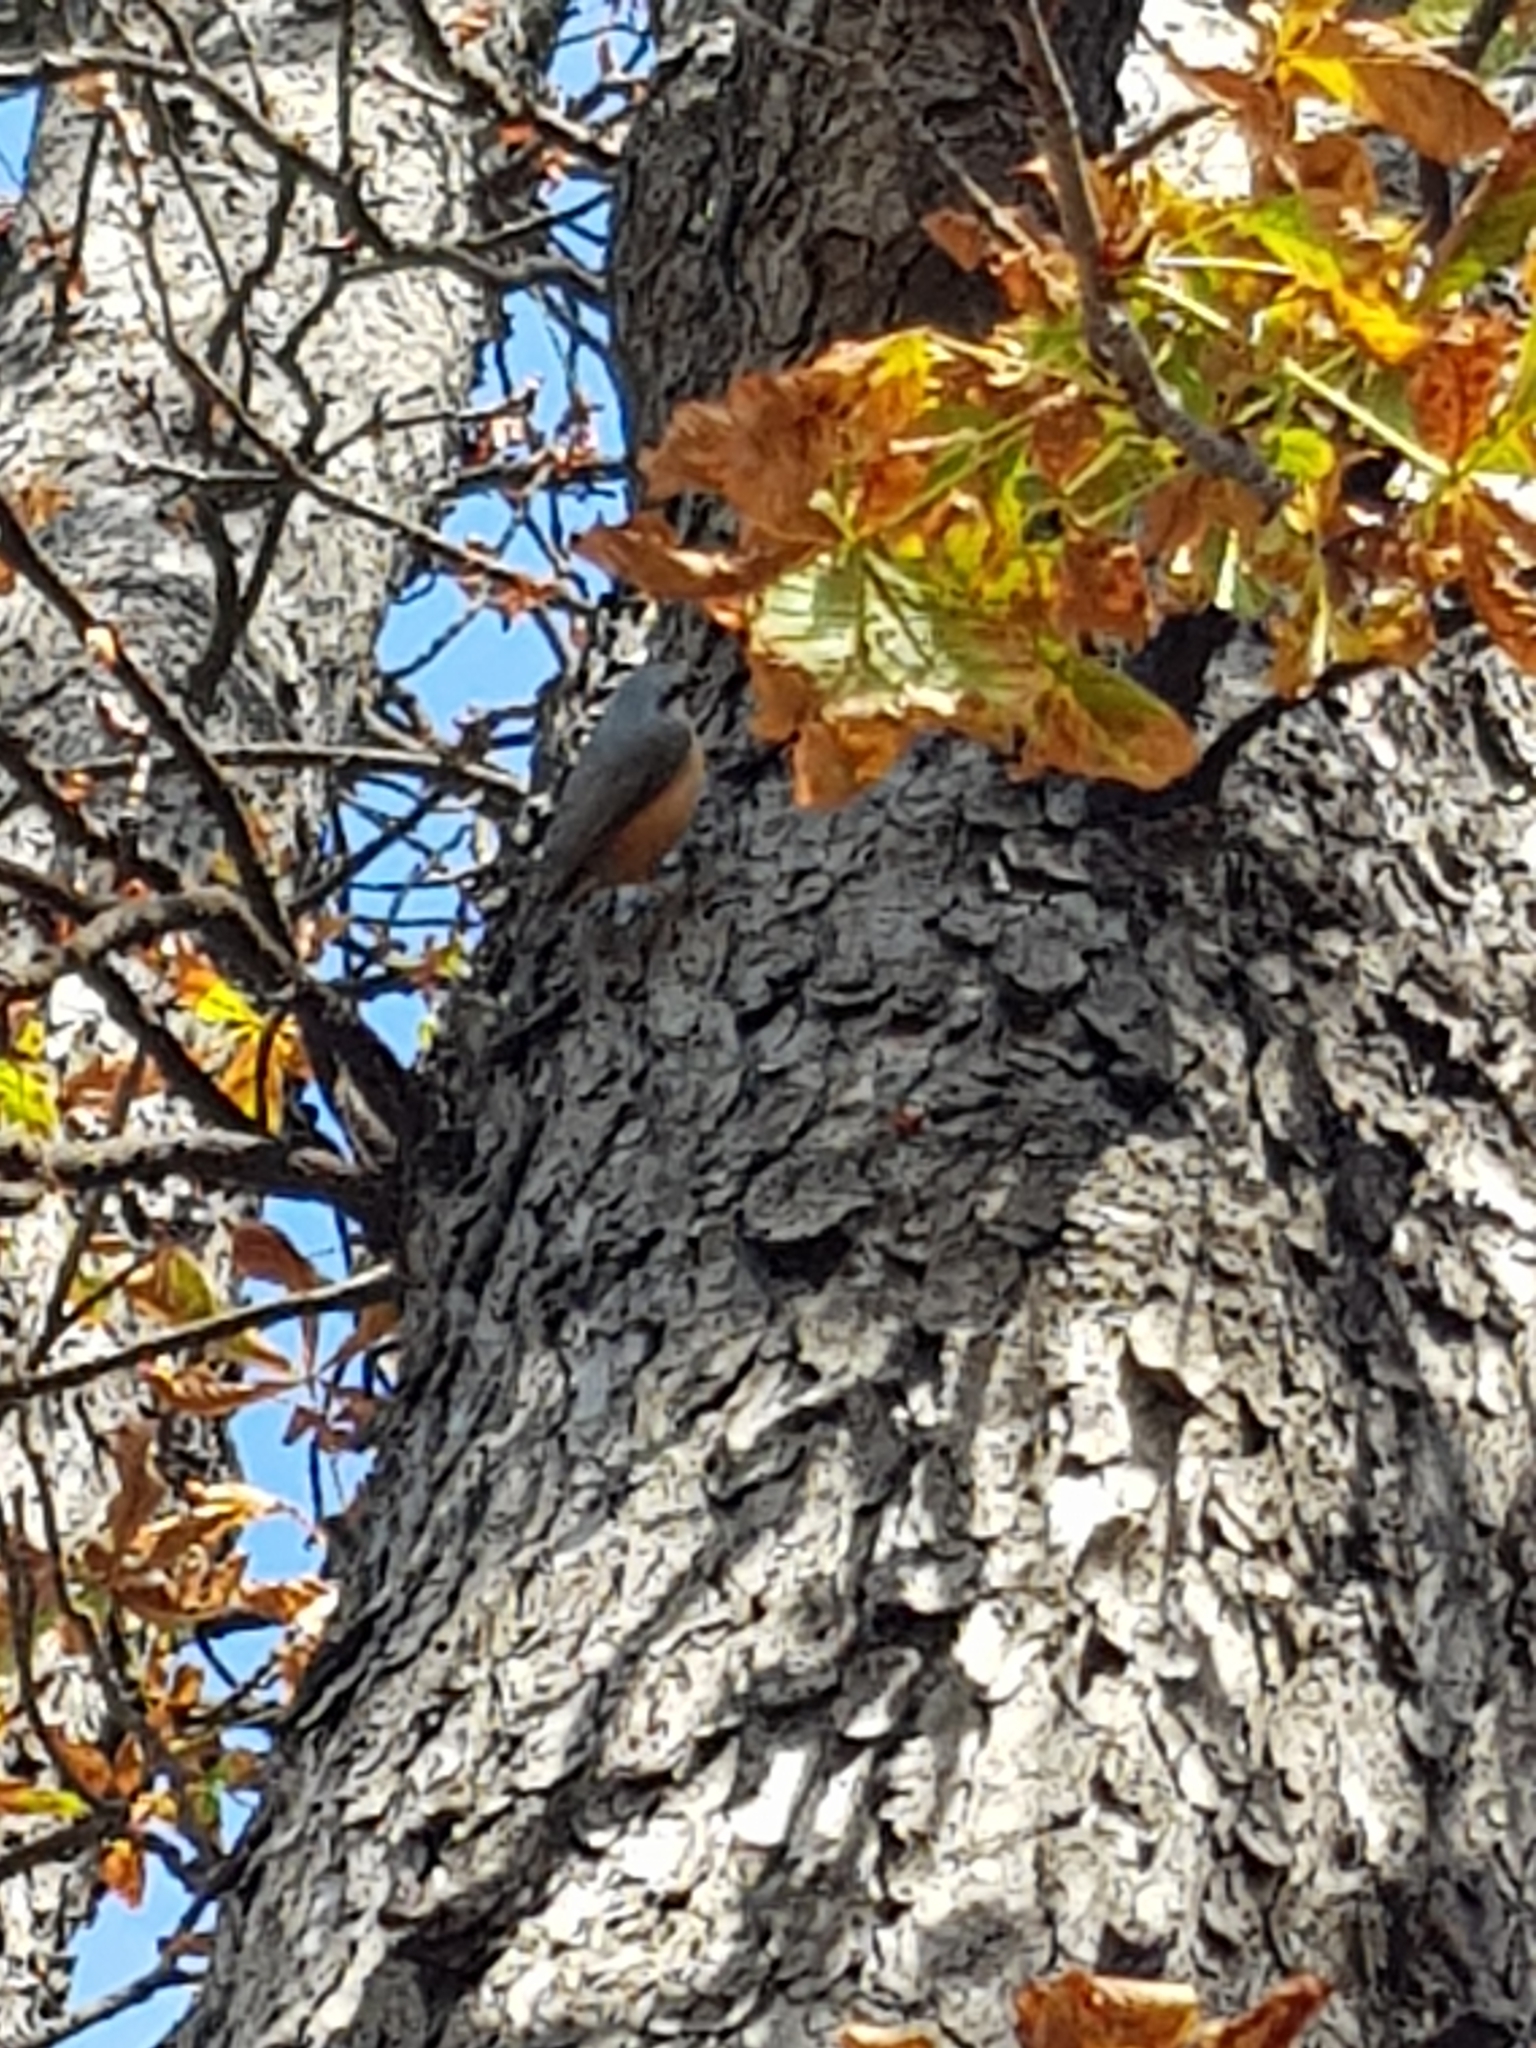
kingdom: Animalia
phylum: Chordata
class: Aves
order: Passeriformes
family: Sittidae
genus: Sitta
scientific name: Sitta europaea
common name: Eurasian nuthatch
